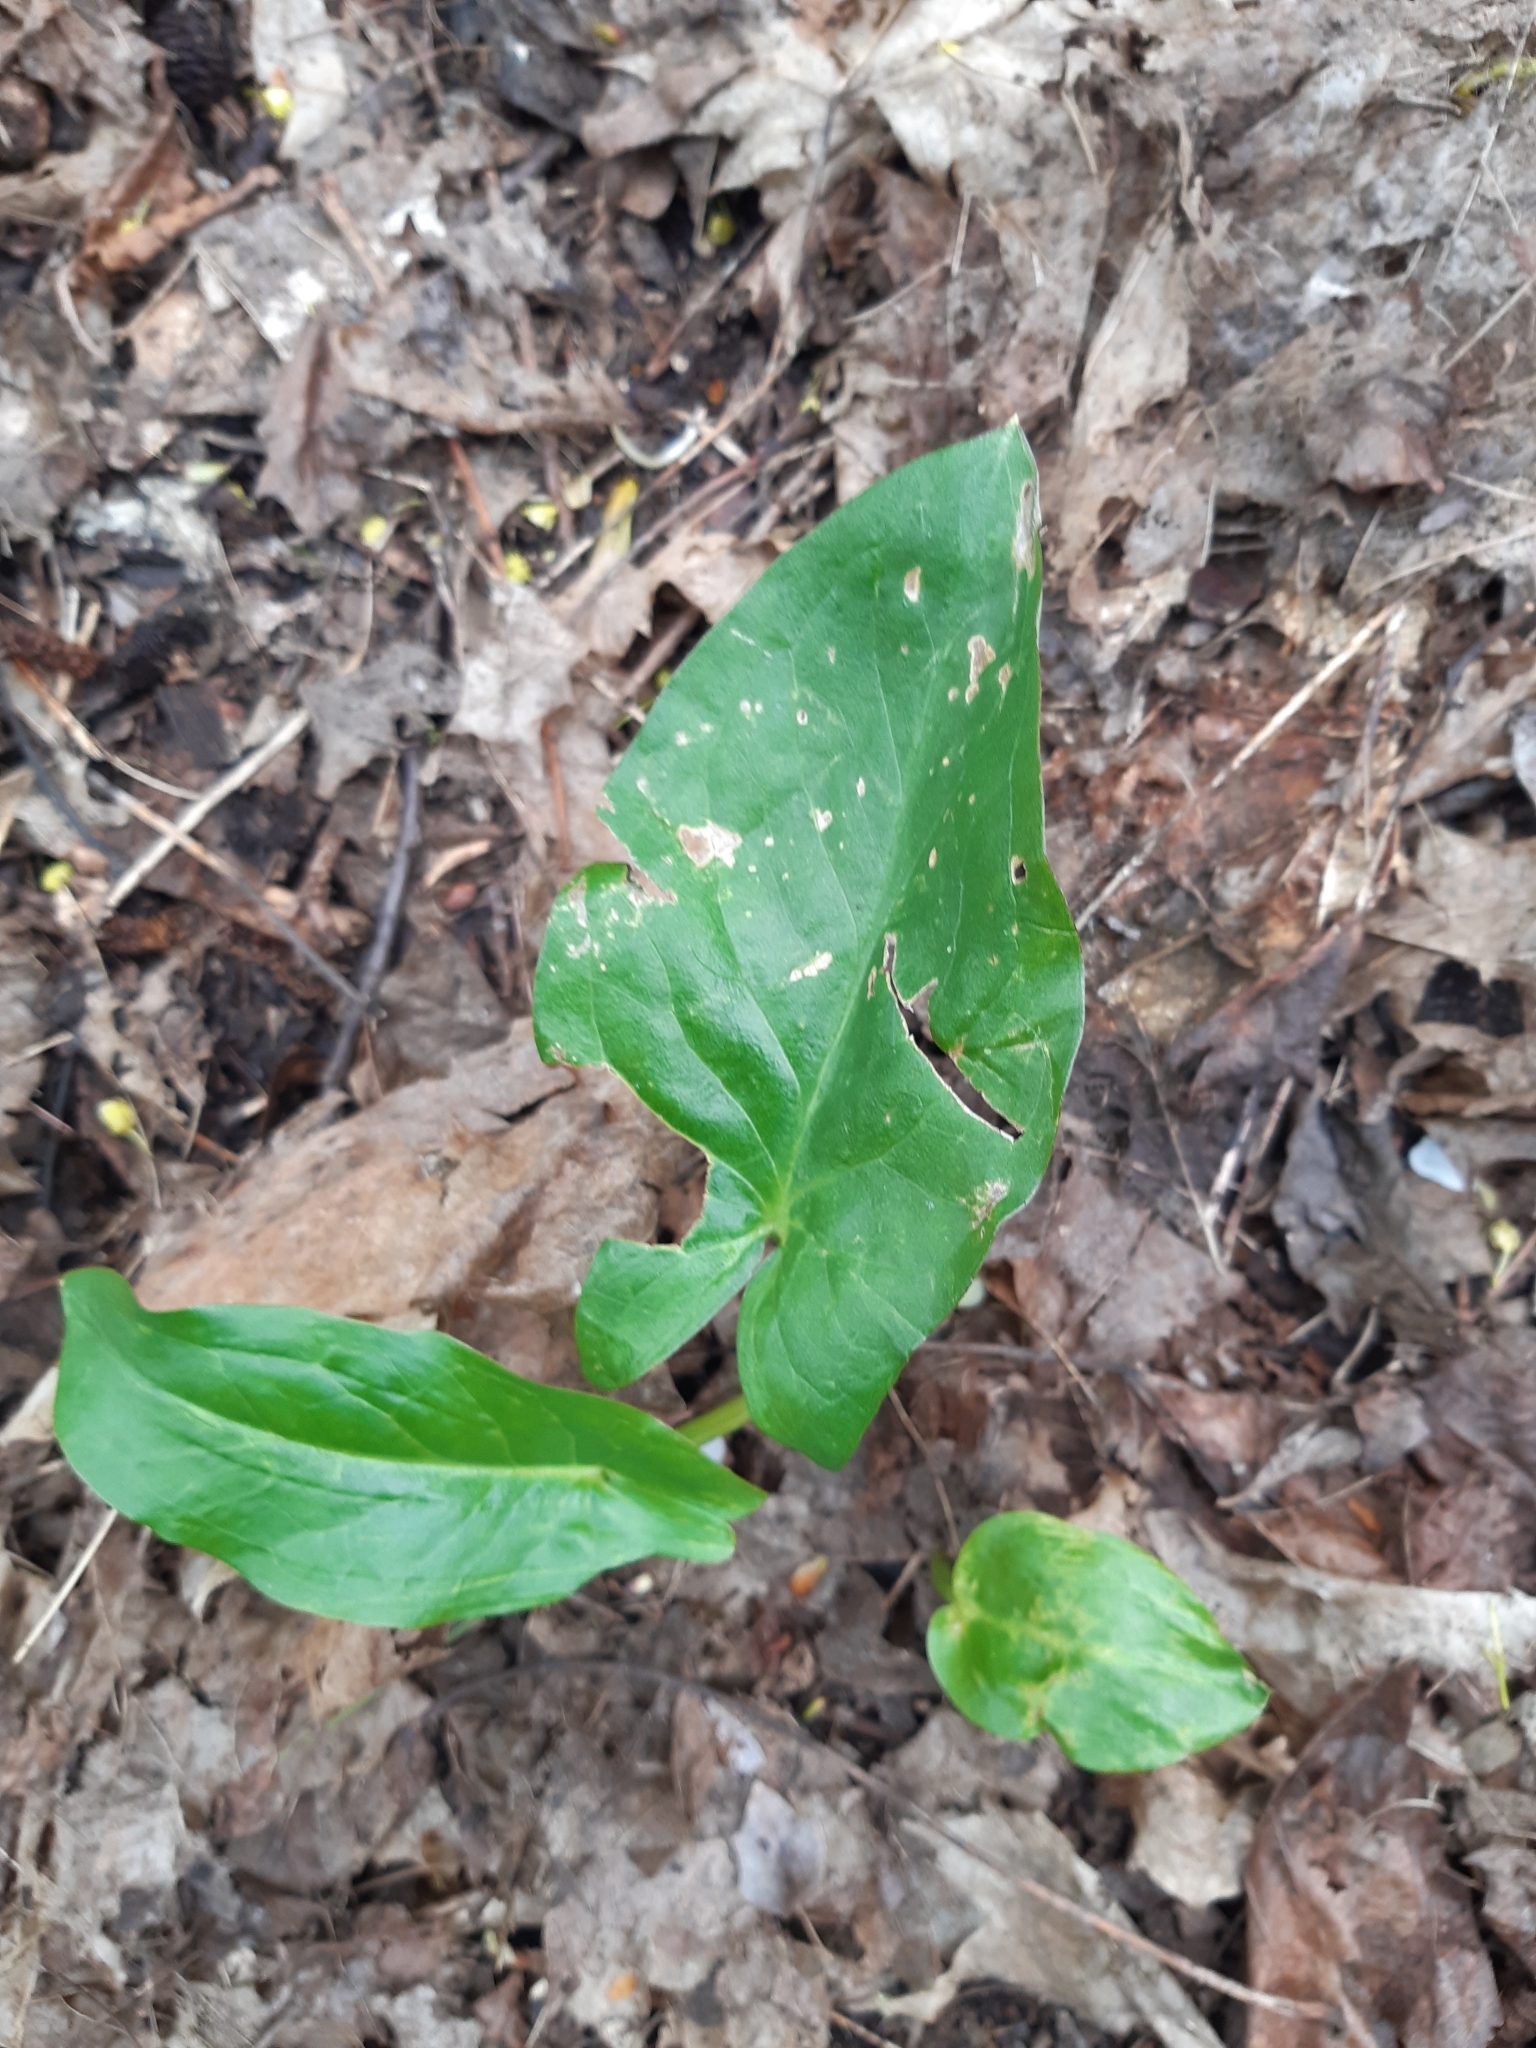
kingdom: Plantae
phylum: Tracheophyta
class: Liliopsida
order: Alismatales
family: Araceae
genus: Arum
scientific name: Arum maculatum
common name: Lords-and-ladies
